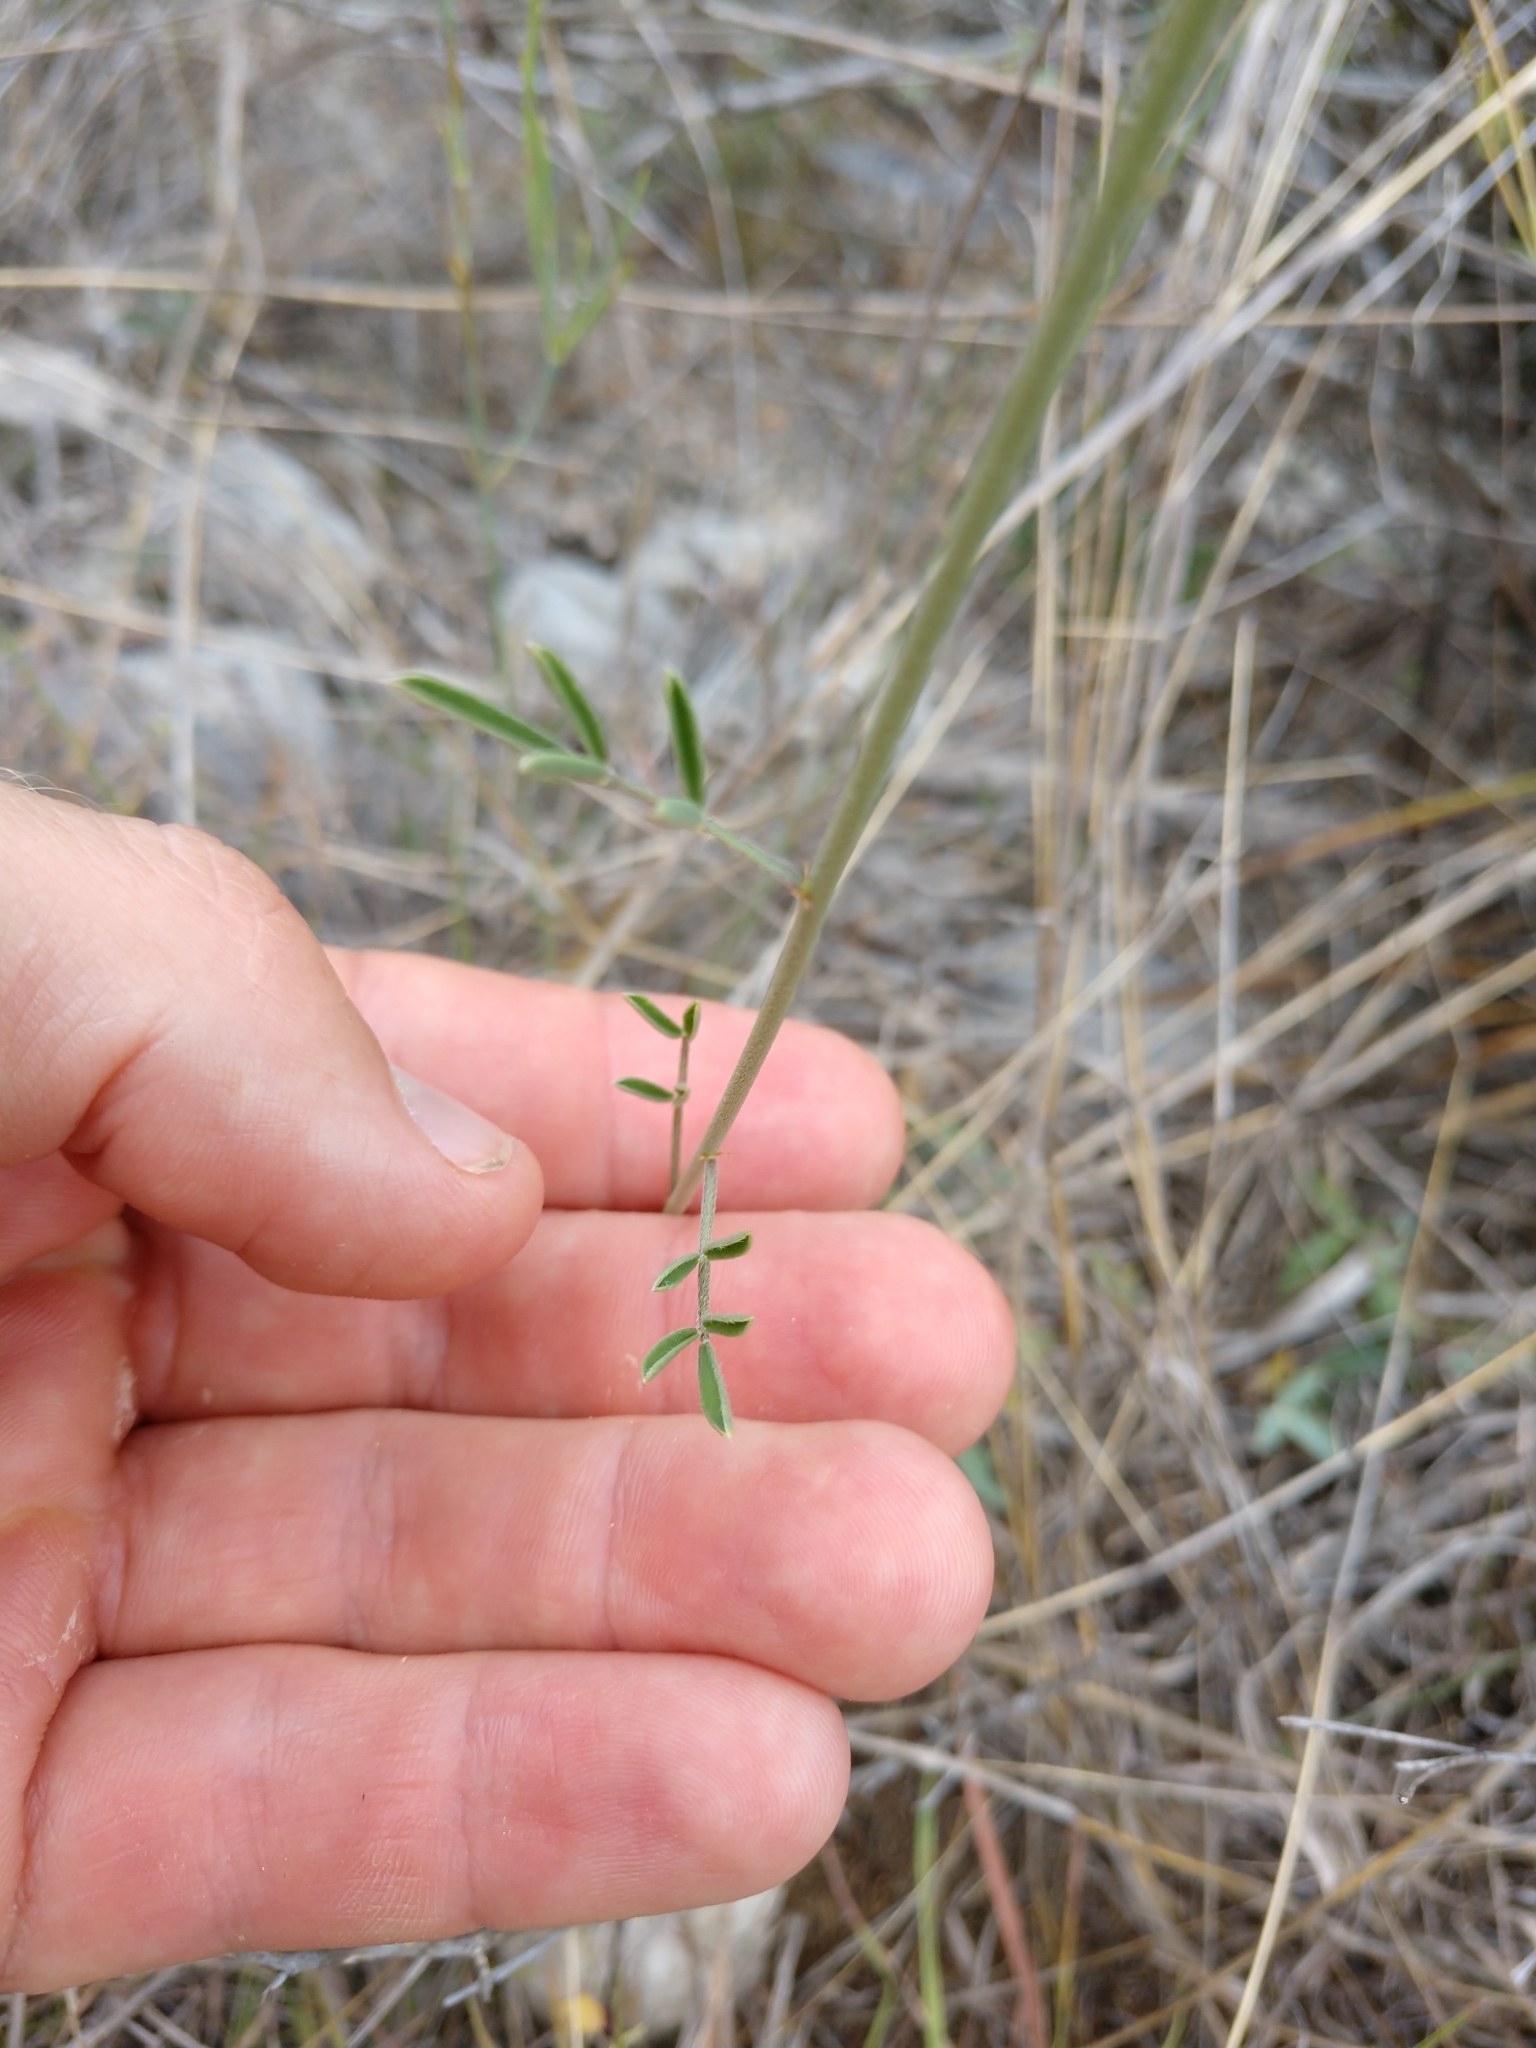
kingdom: Plantae
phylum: Tracheophyta
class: Magnoliopsida
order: Fabales
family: Fabaceae
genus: Dalea
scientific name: Dalea aurea
